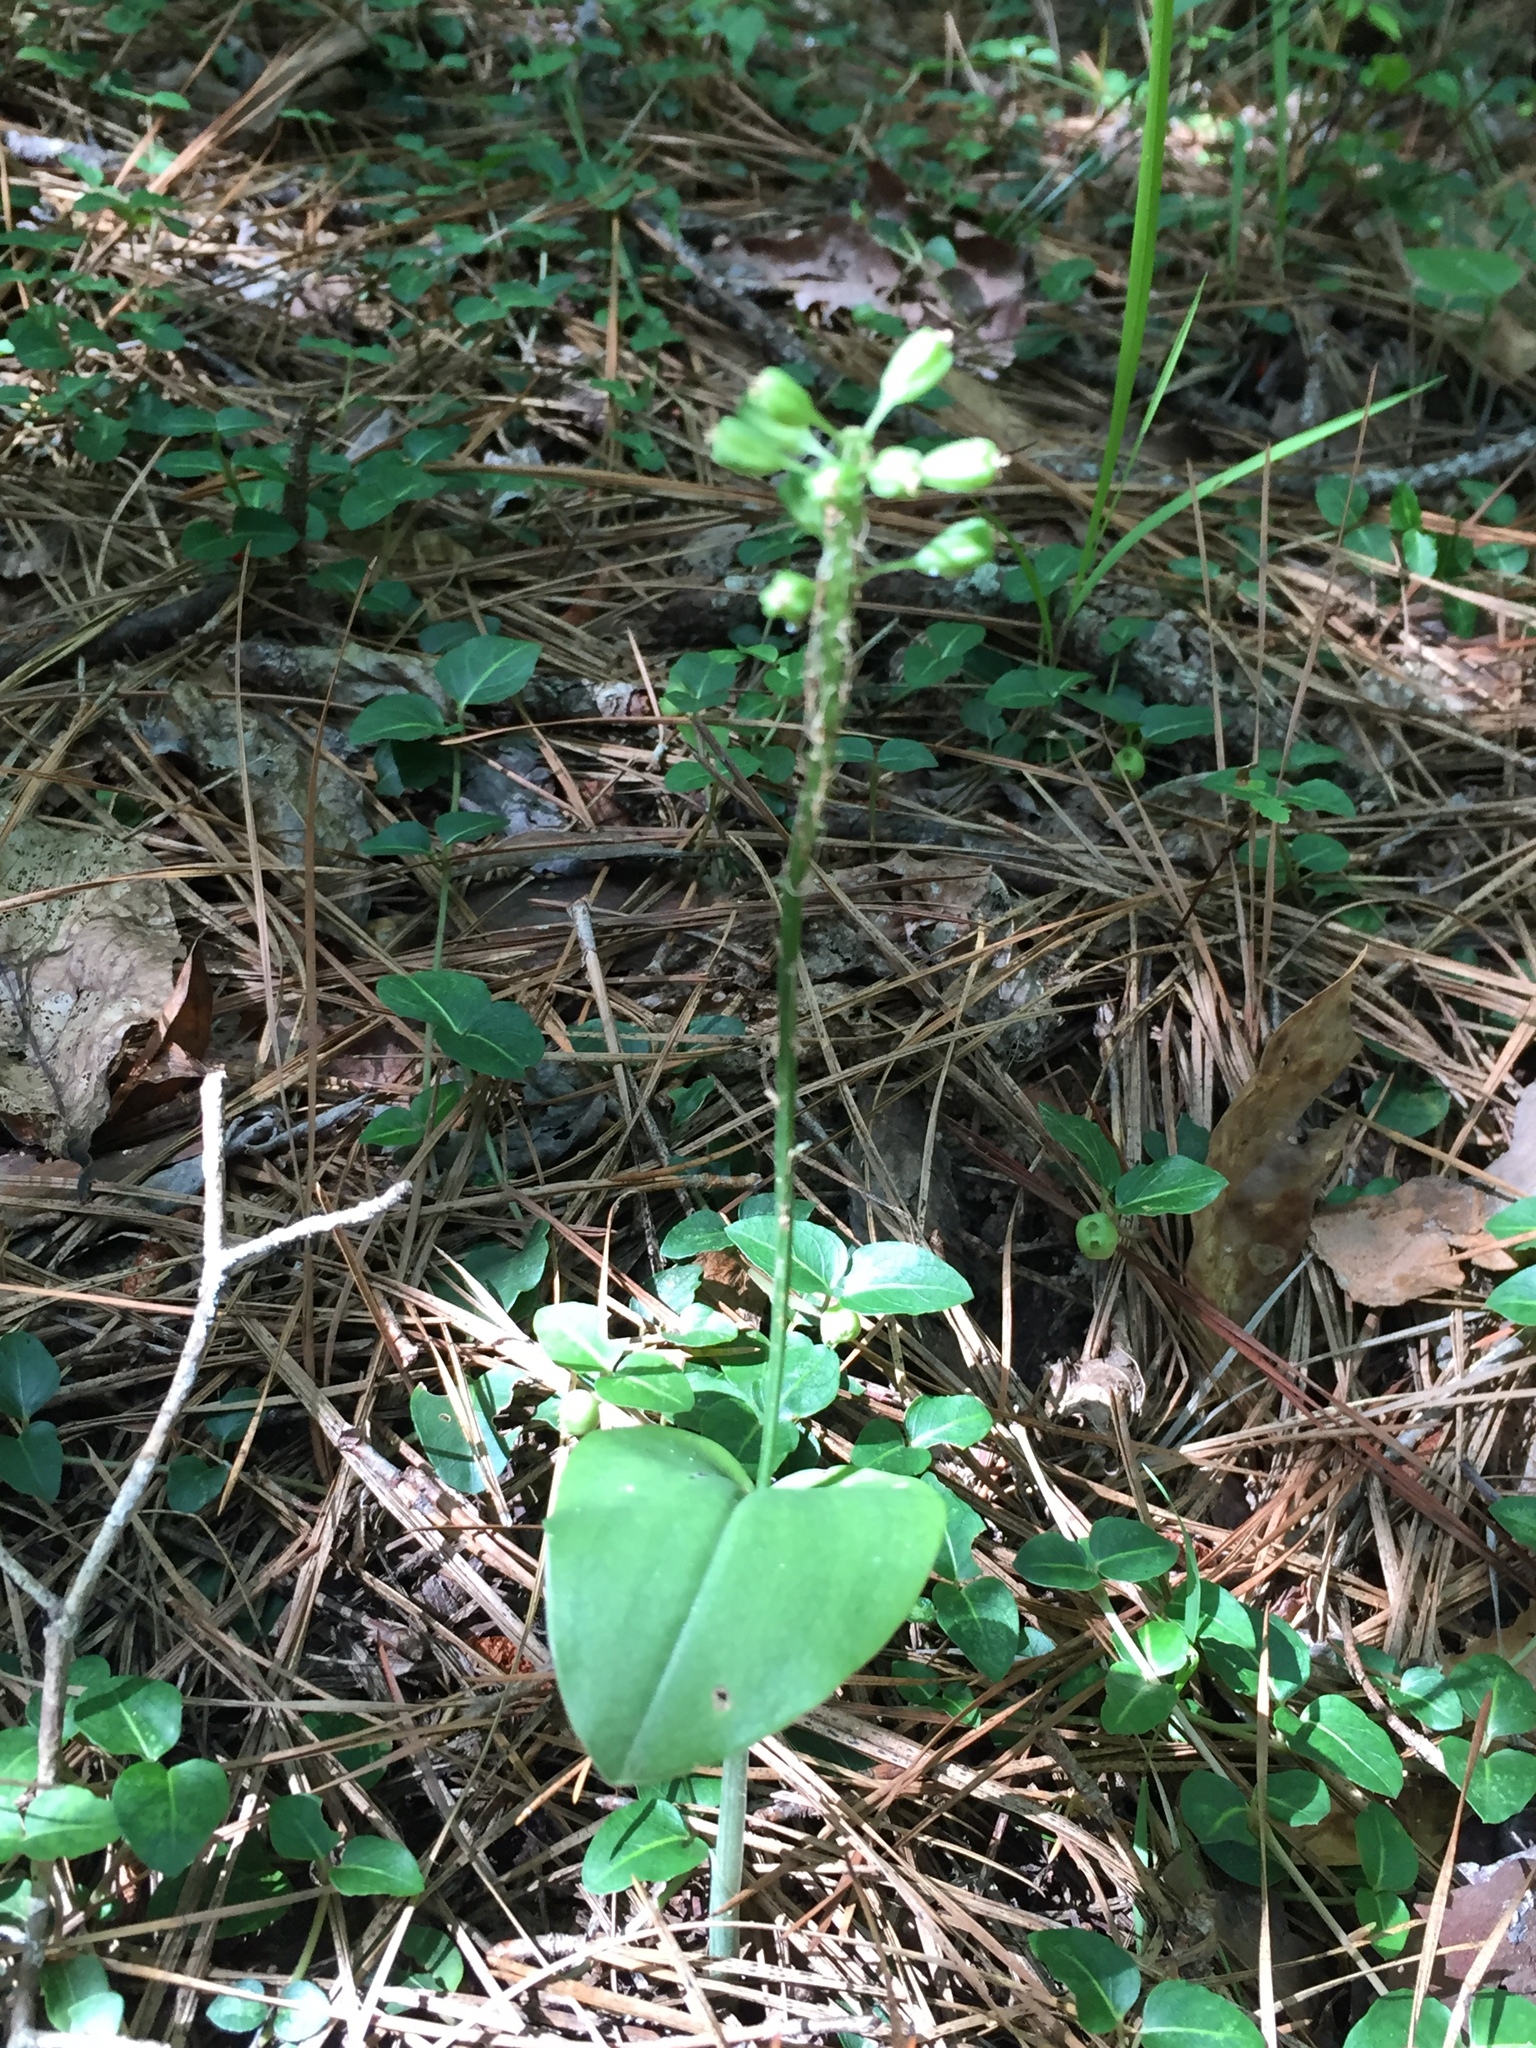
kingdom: Plantae
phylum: Tracheophyta
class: Liliopsida
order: Asparagales
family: Orchidaceae
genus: Malaxis
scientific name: Malaxis unifolia
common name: Green adder's-mouth
